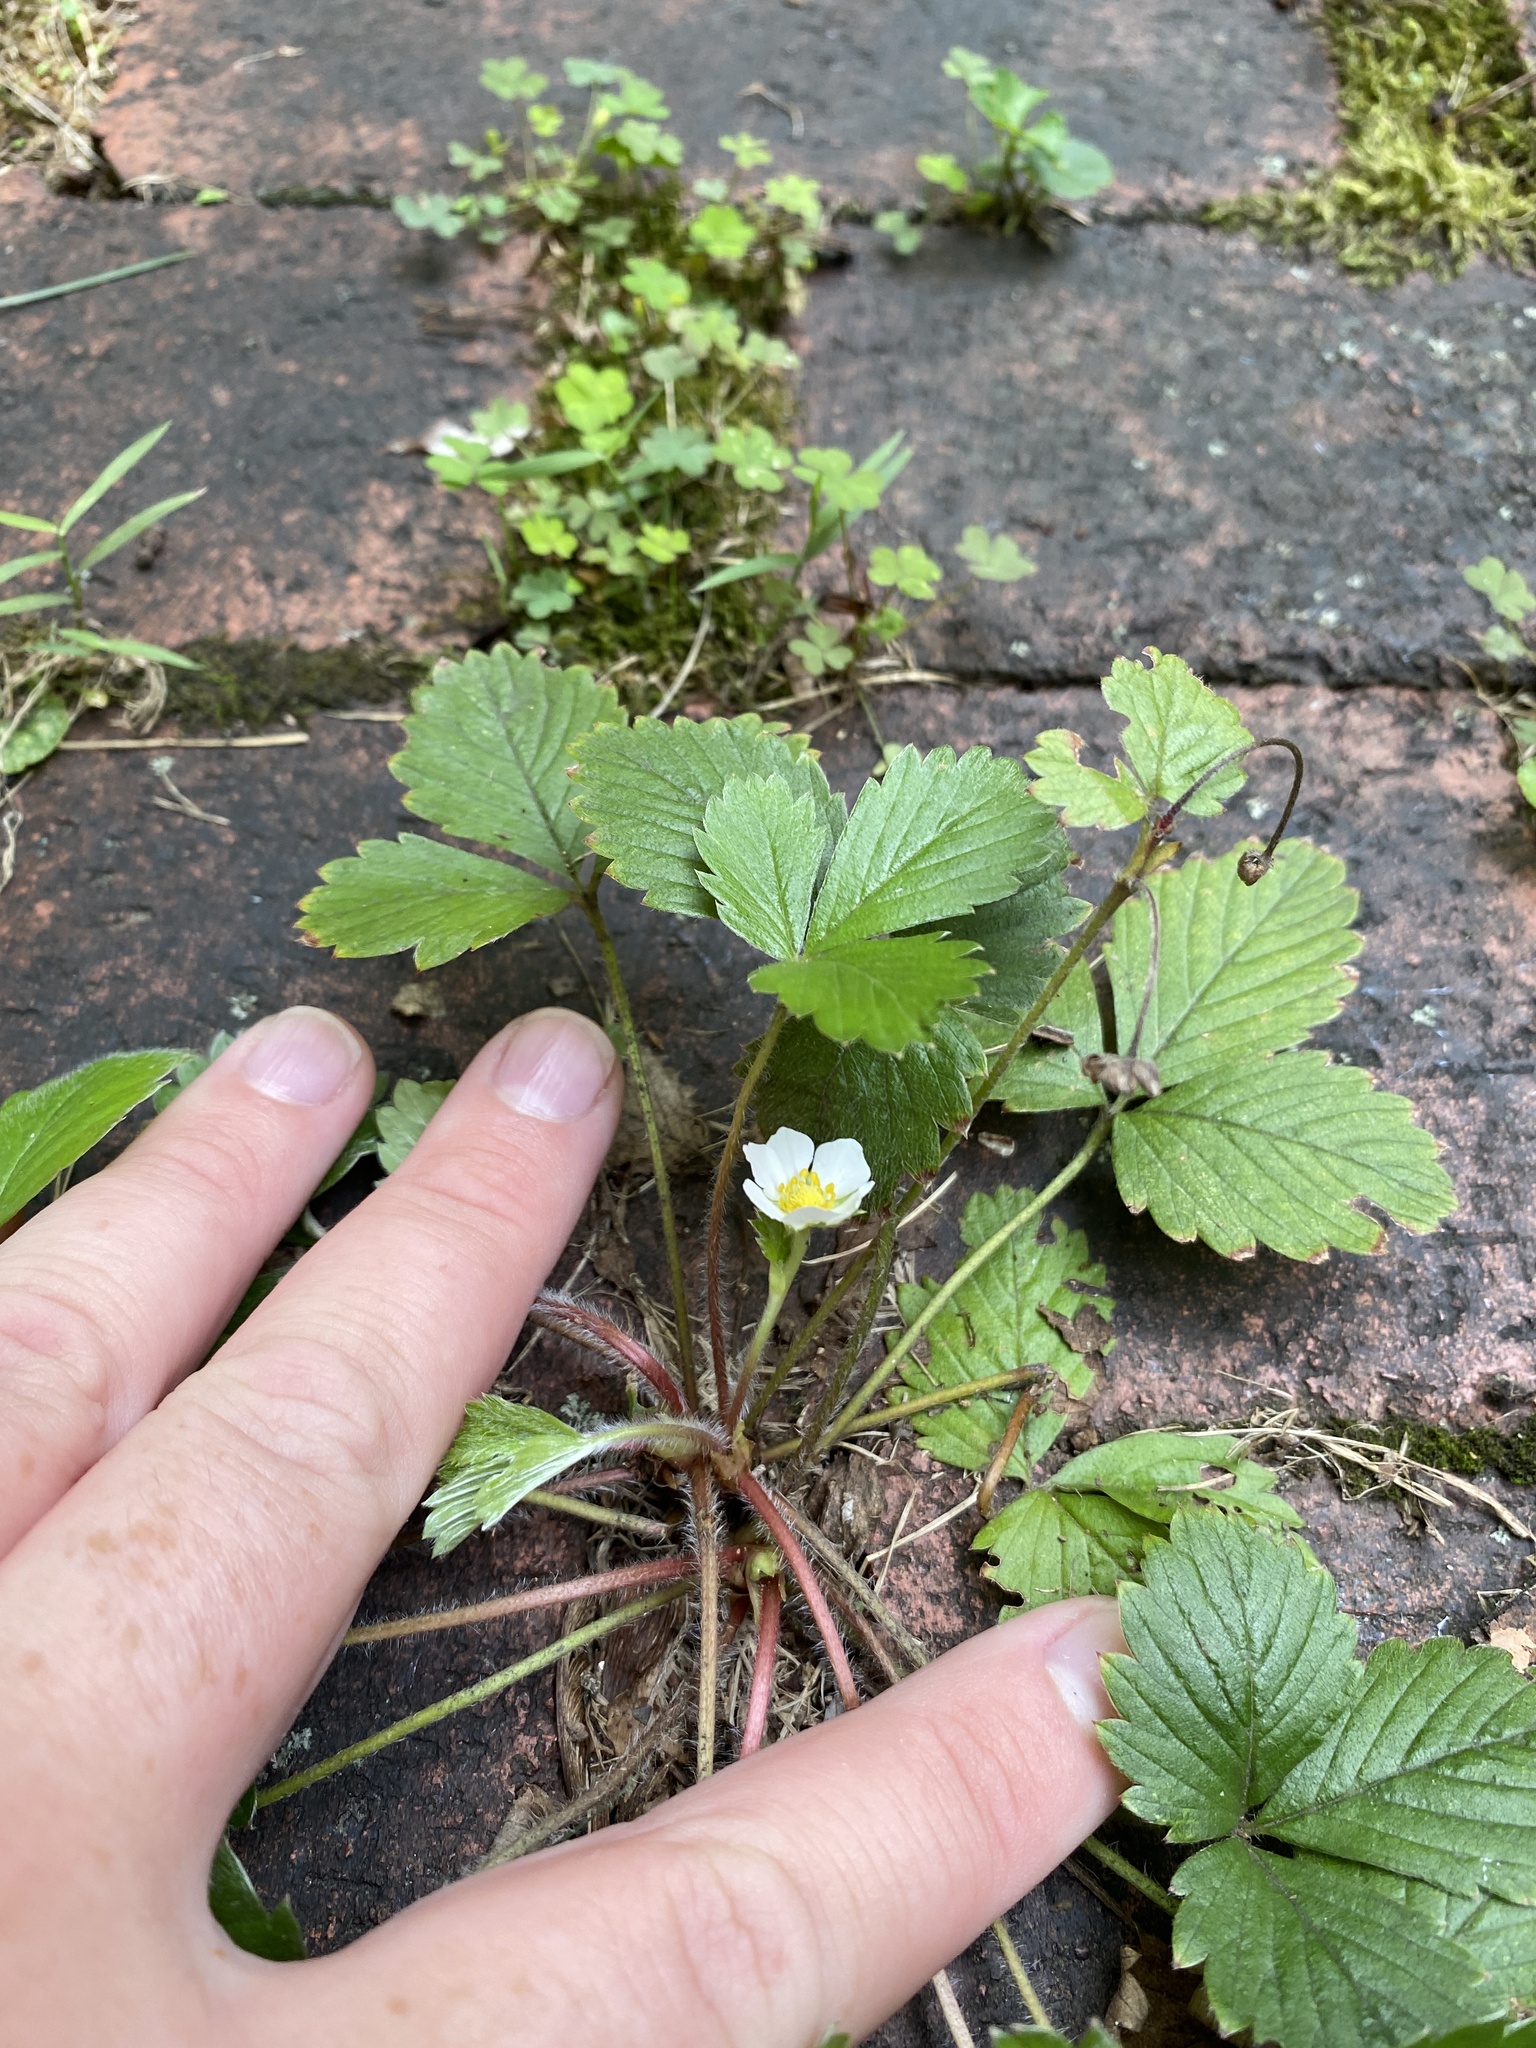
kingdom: Plantae
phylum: Tracheophyta
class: Magnoliopsida
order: Rosales
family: Rosaceae
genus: Fragaria
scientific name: Fragaria vesca
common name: Wild strawberry
